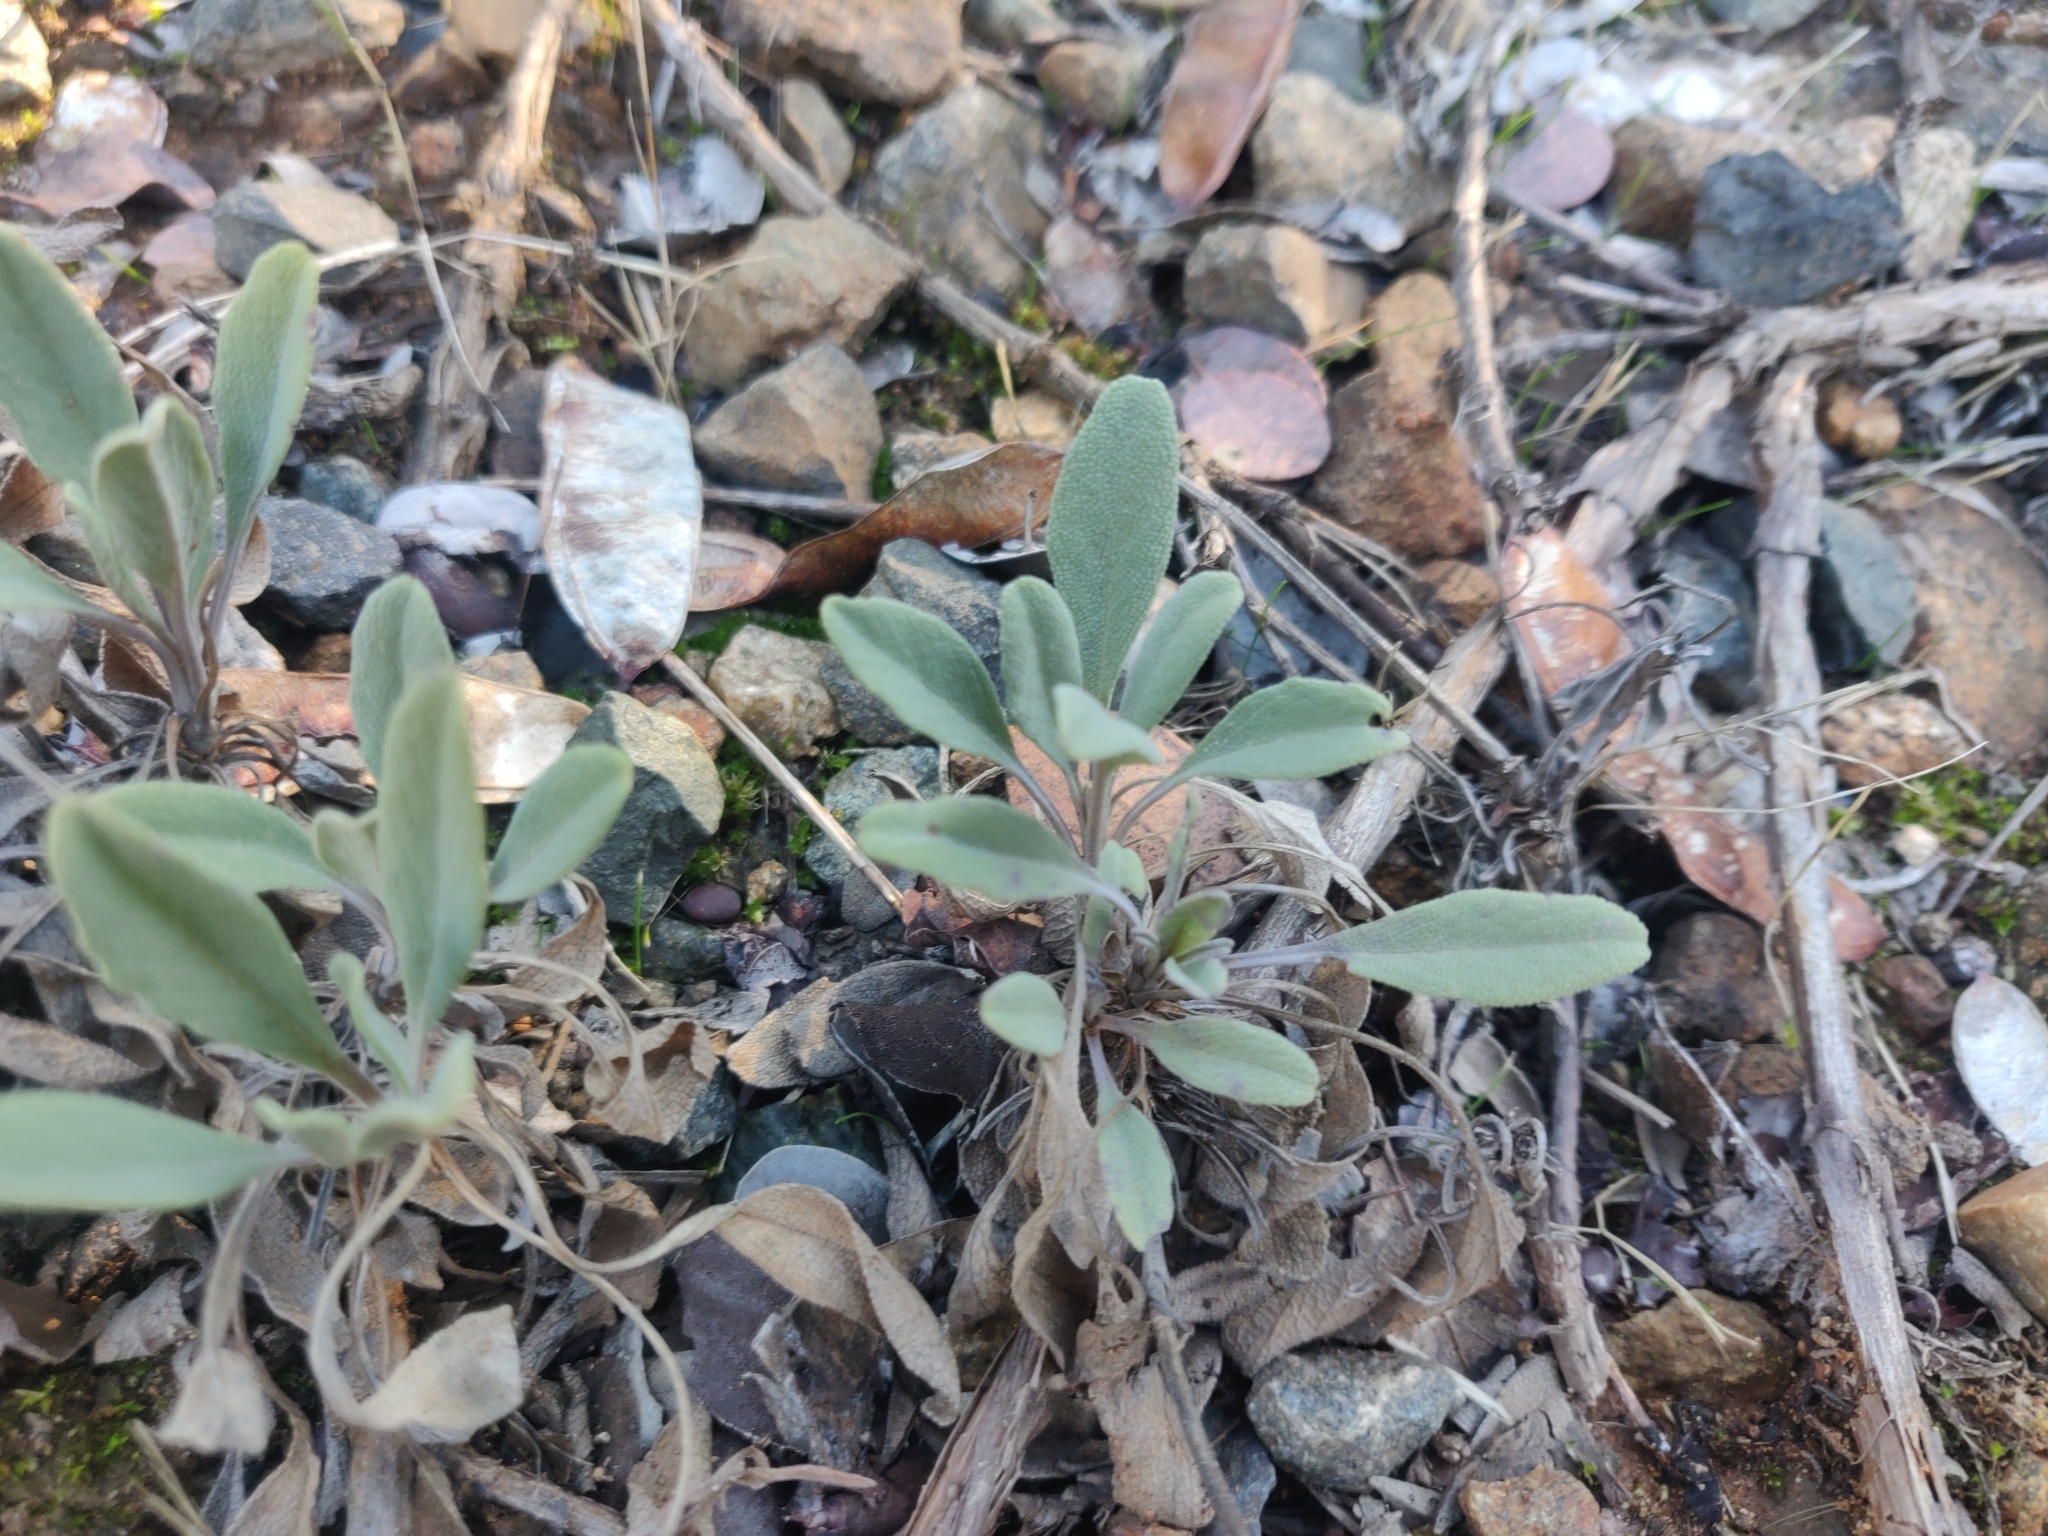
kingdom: Plantae
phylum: Tracheophyta
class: Magnoliopsida
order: Lamiales
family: Lamiaceae
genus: Salvia
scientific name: Salvia sonomensis
